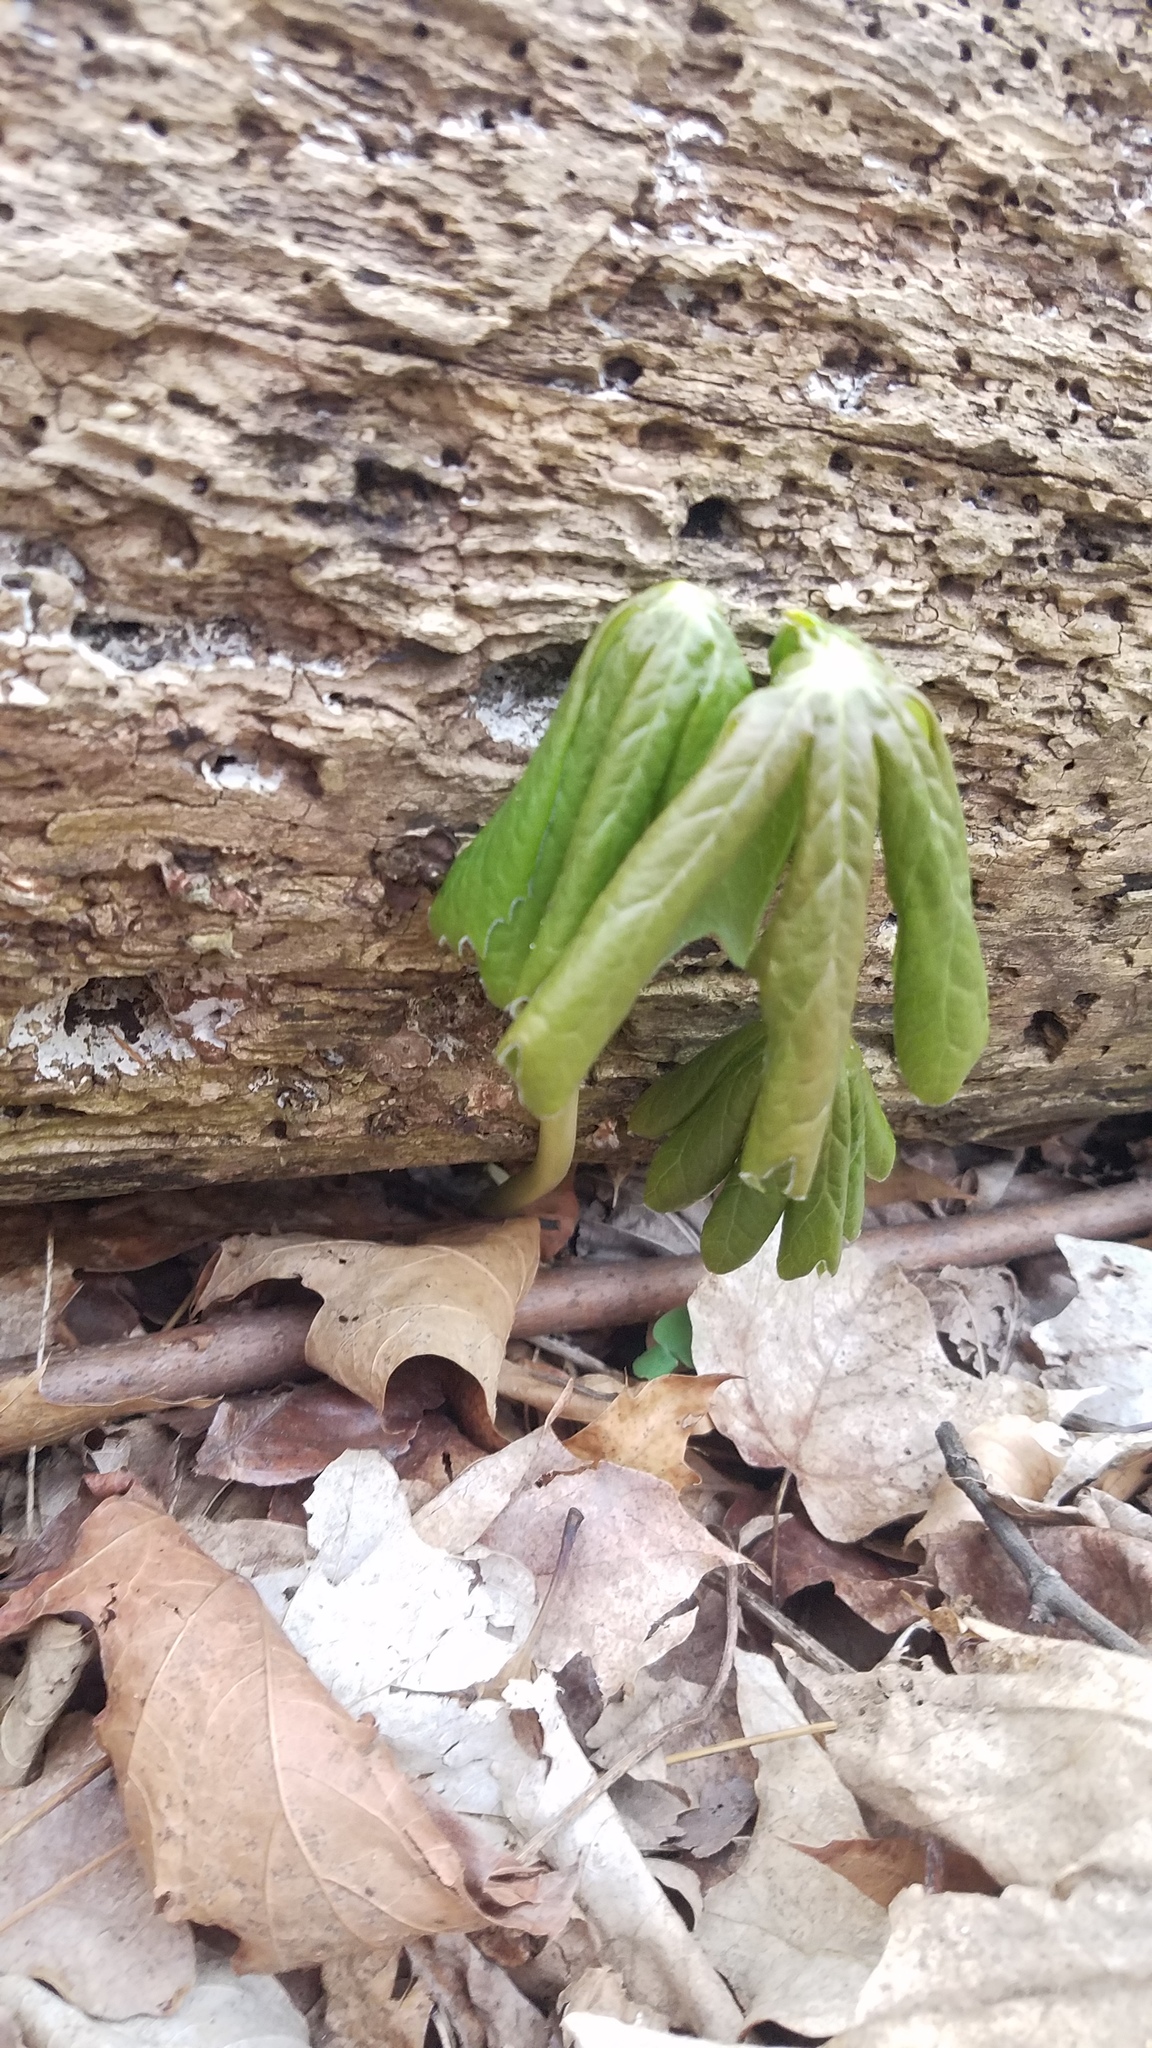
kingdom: Plantae
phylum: Tracheophyta
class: Magnoliopsida
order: Ranunculales
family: Berberidaceae
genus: Podophyllum
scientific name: Podophyllum peltatum
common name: Wild mandrake
